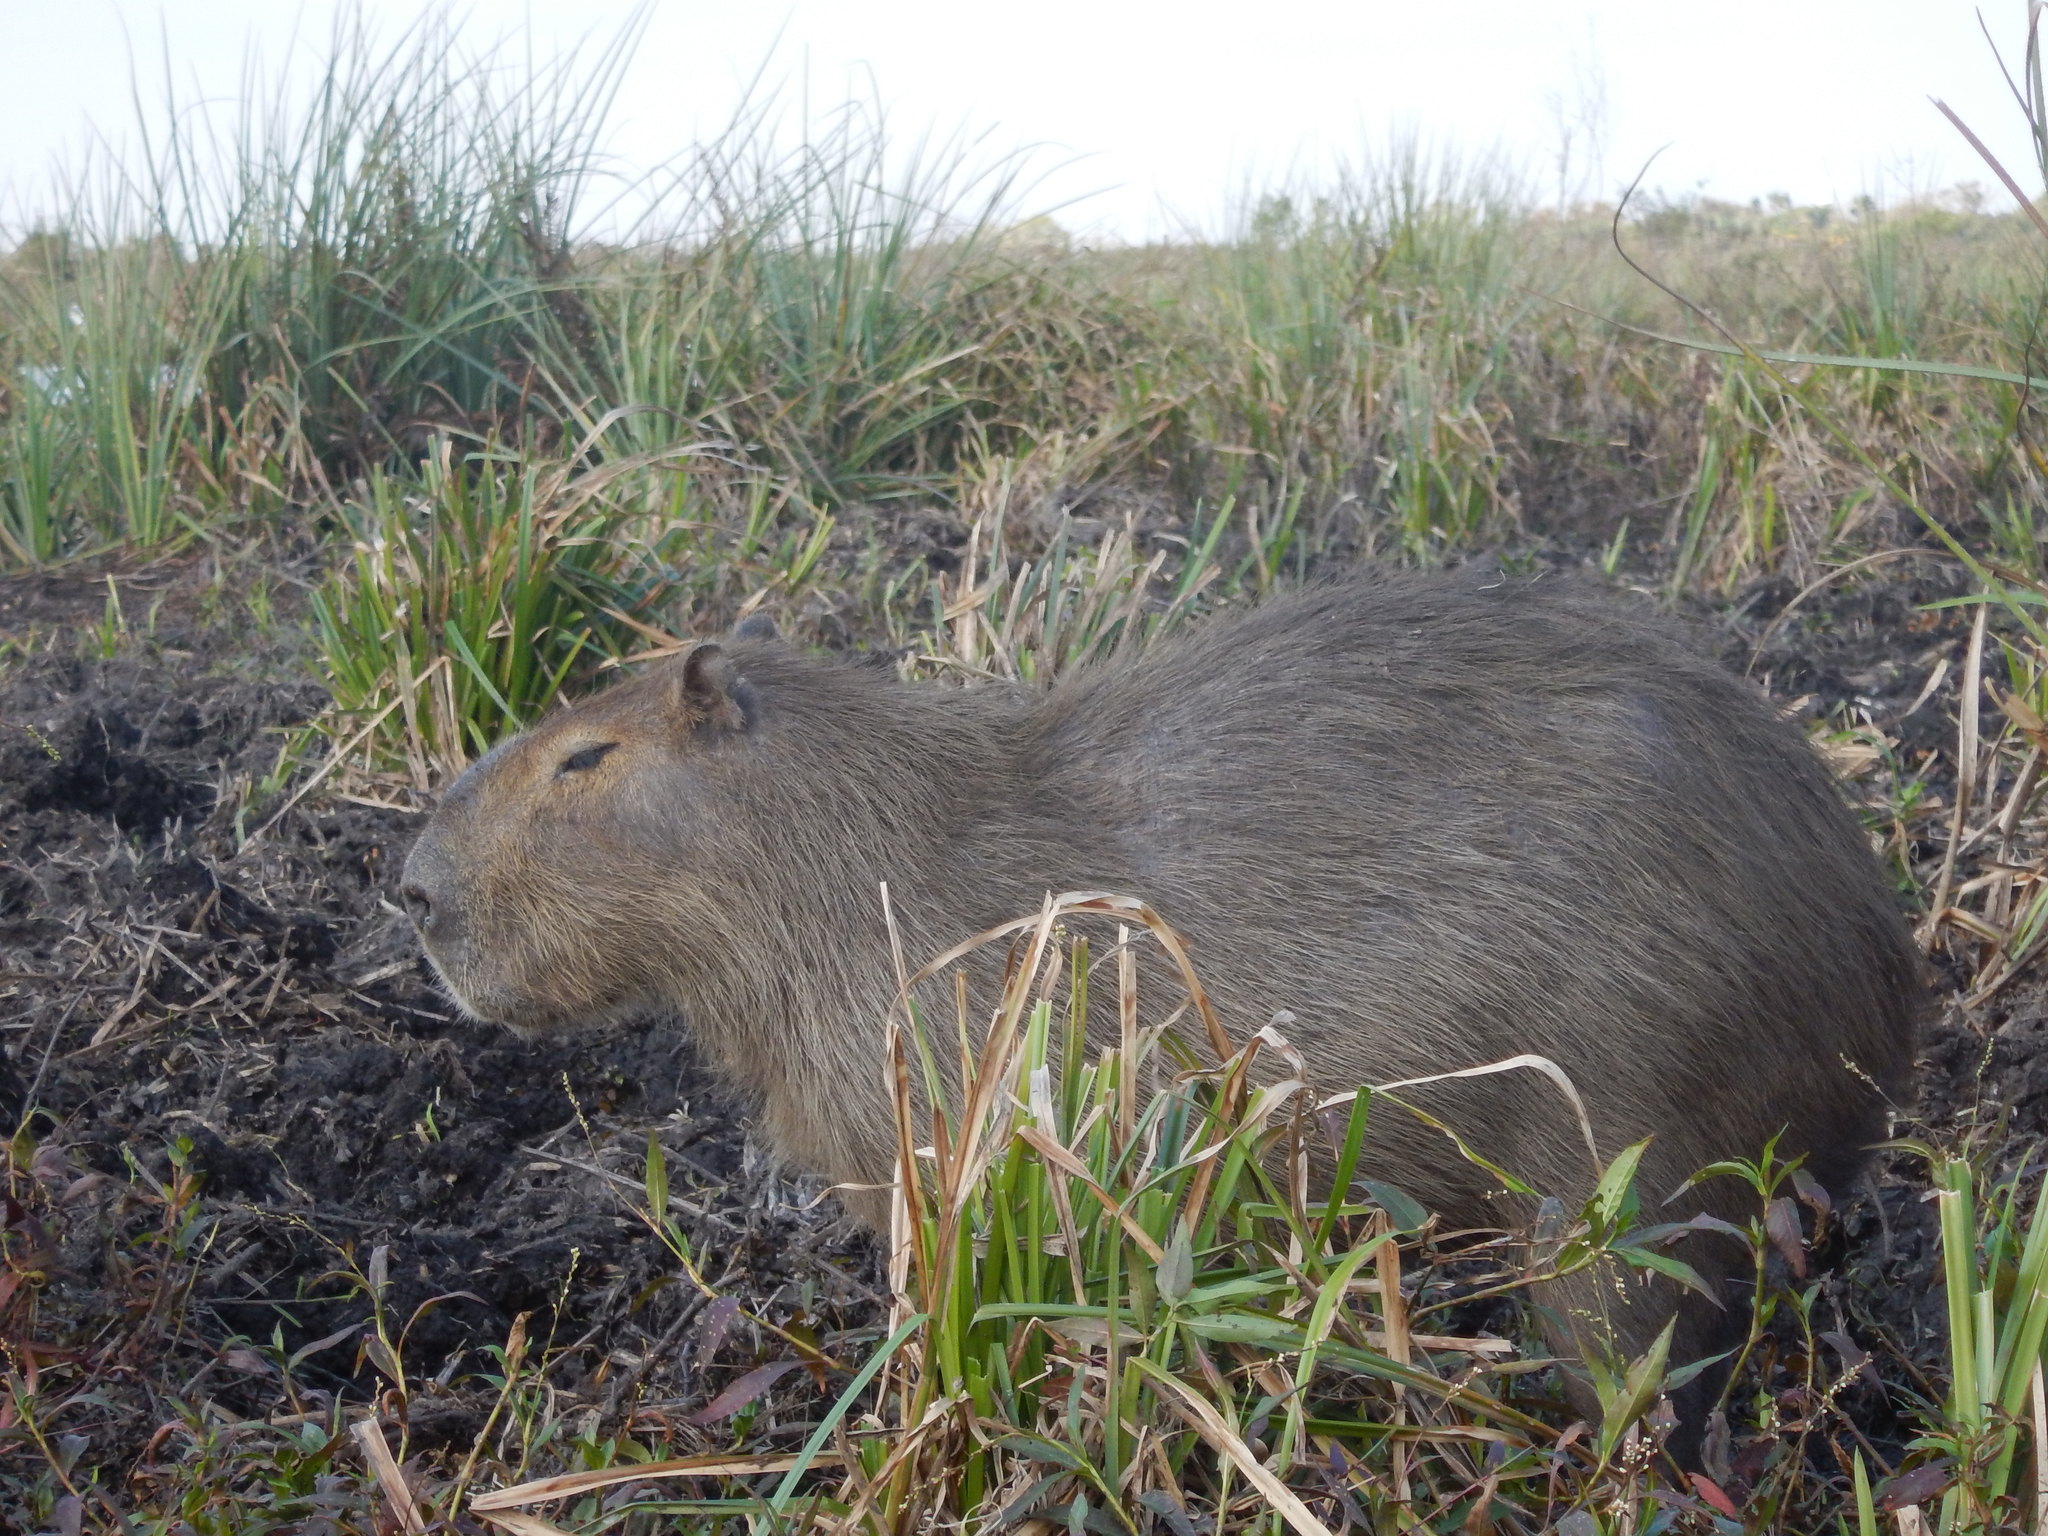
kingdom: Animalia
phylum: Chordata
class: Mammalia
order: Rodentia
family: Caviidae
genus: Hydrochoerus
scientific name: Hydrochoerus hydrochaeris
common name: Capybara
